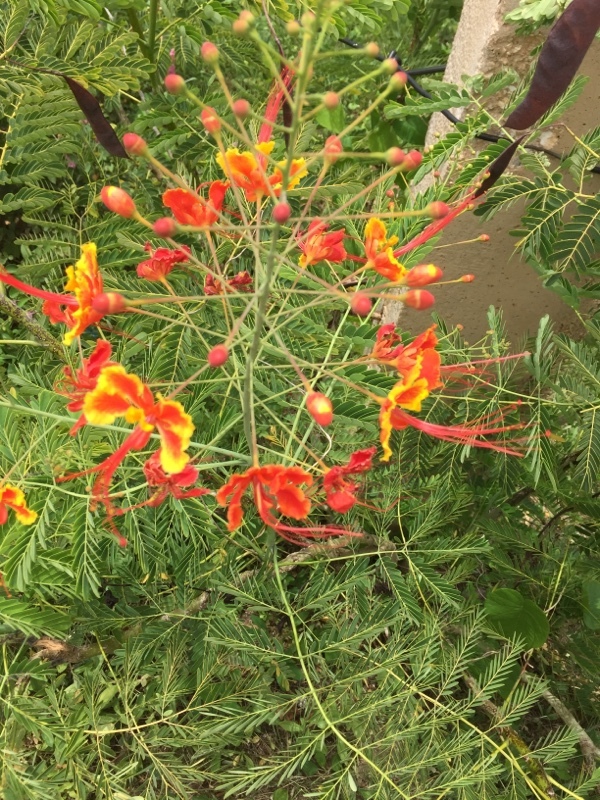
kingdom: Plantae
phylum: Tracheophyta
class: Magnoliopsida
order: Fabales
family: Fabaceae
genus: Caesalpinia
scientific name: Caesalpinia pulcherrima
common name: Pride-of-barbados
